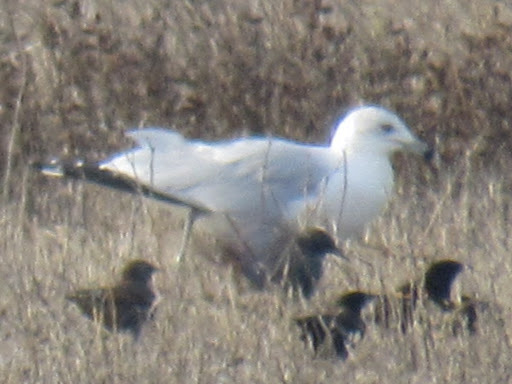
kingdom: Animalia
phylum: Chordata
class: Aves
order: Charadriiformes
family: Laridae
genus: Larus
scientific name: Larus delawarensis
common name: Ring-billed gull
